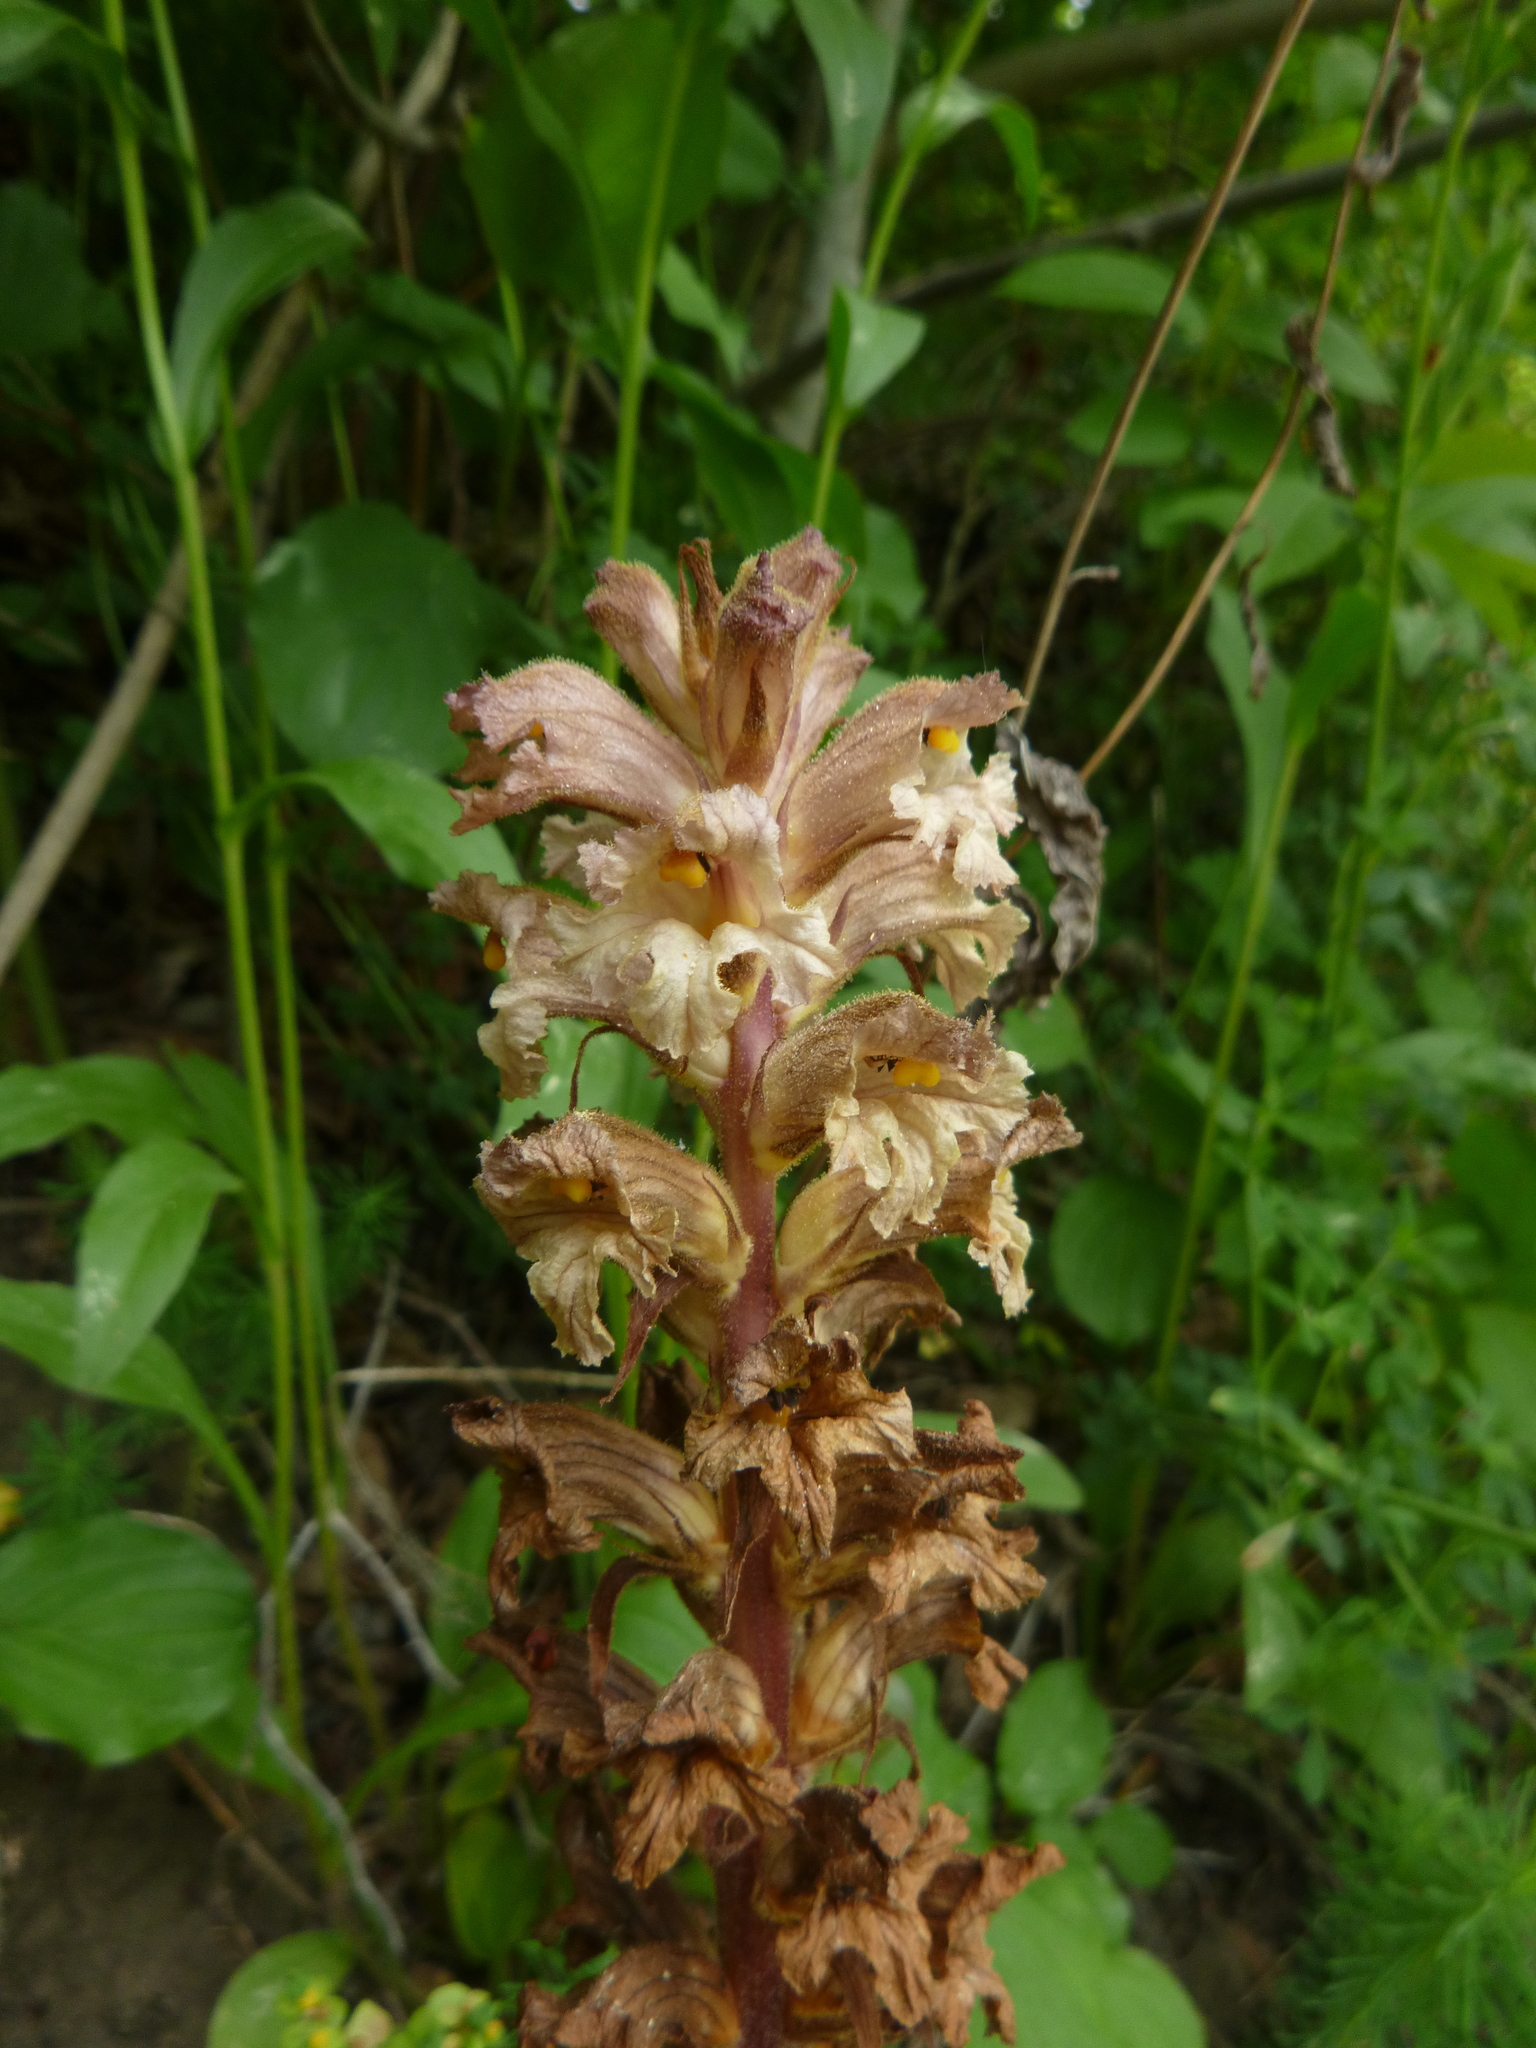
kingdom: Plantae
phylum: Tracheophyta
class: Magnoliopsida
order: Lamiales
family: Orobanchaceae
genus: Orobanche
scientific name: Orobanche lutea
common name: Yellow broomrape
